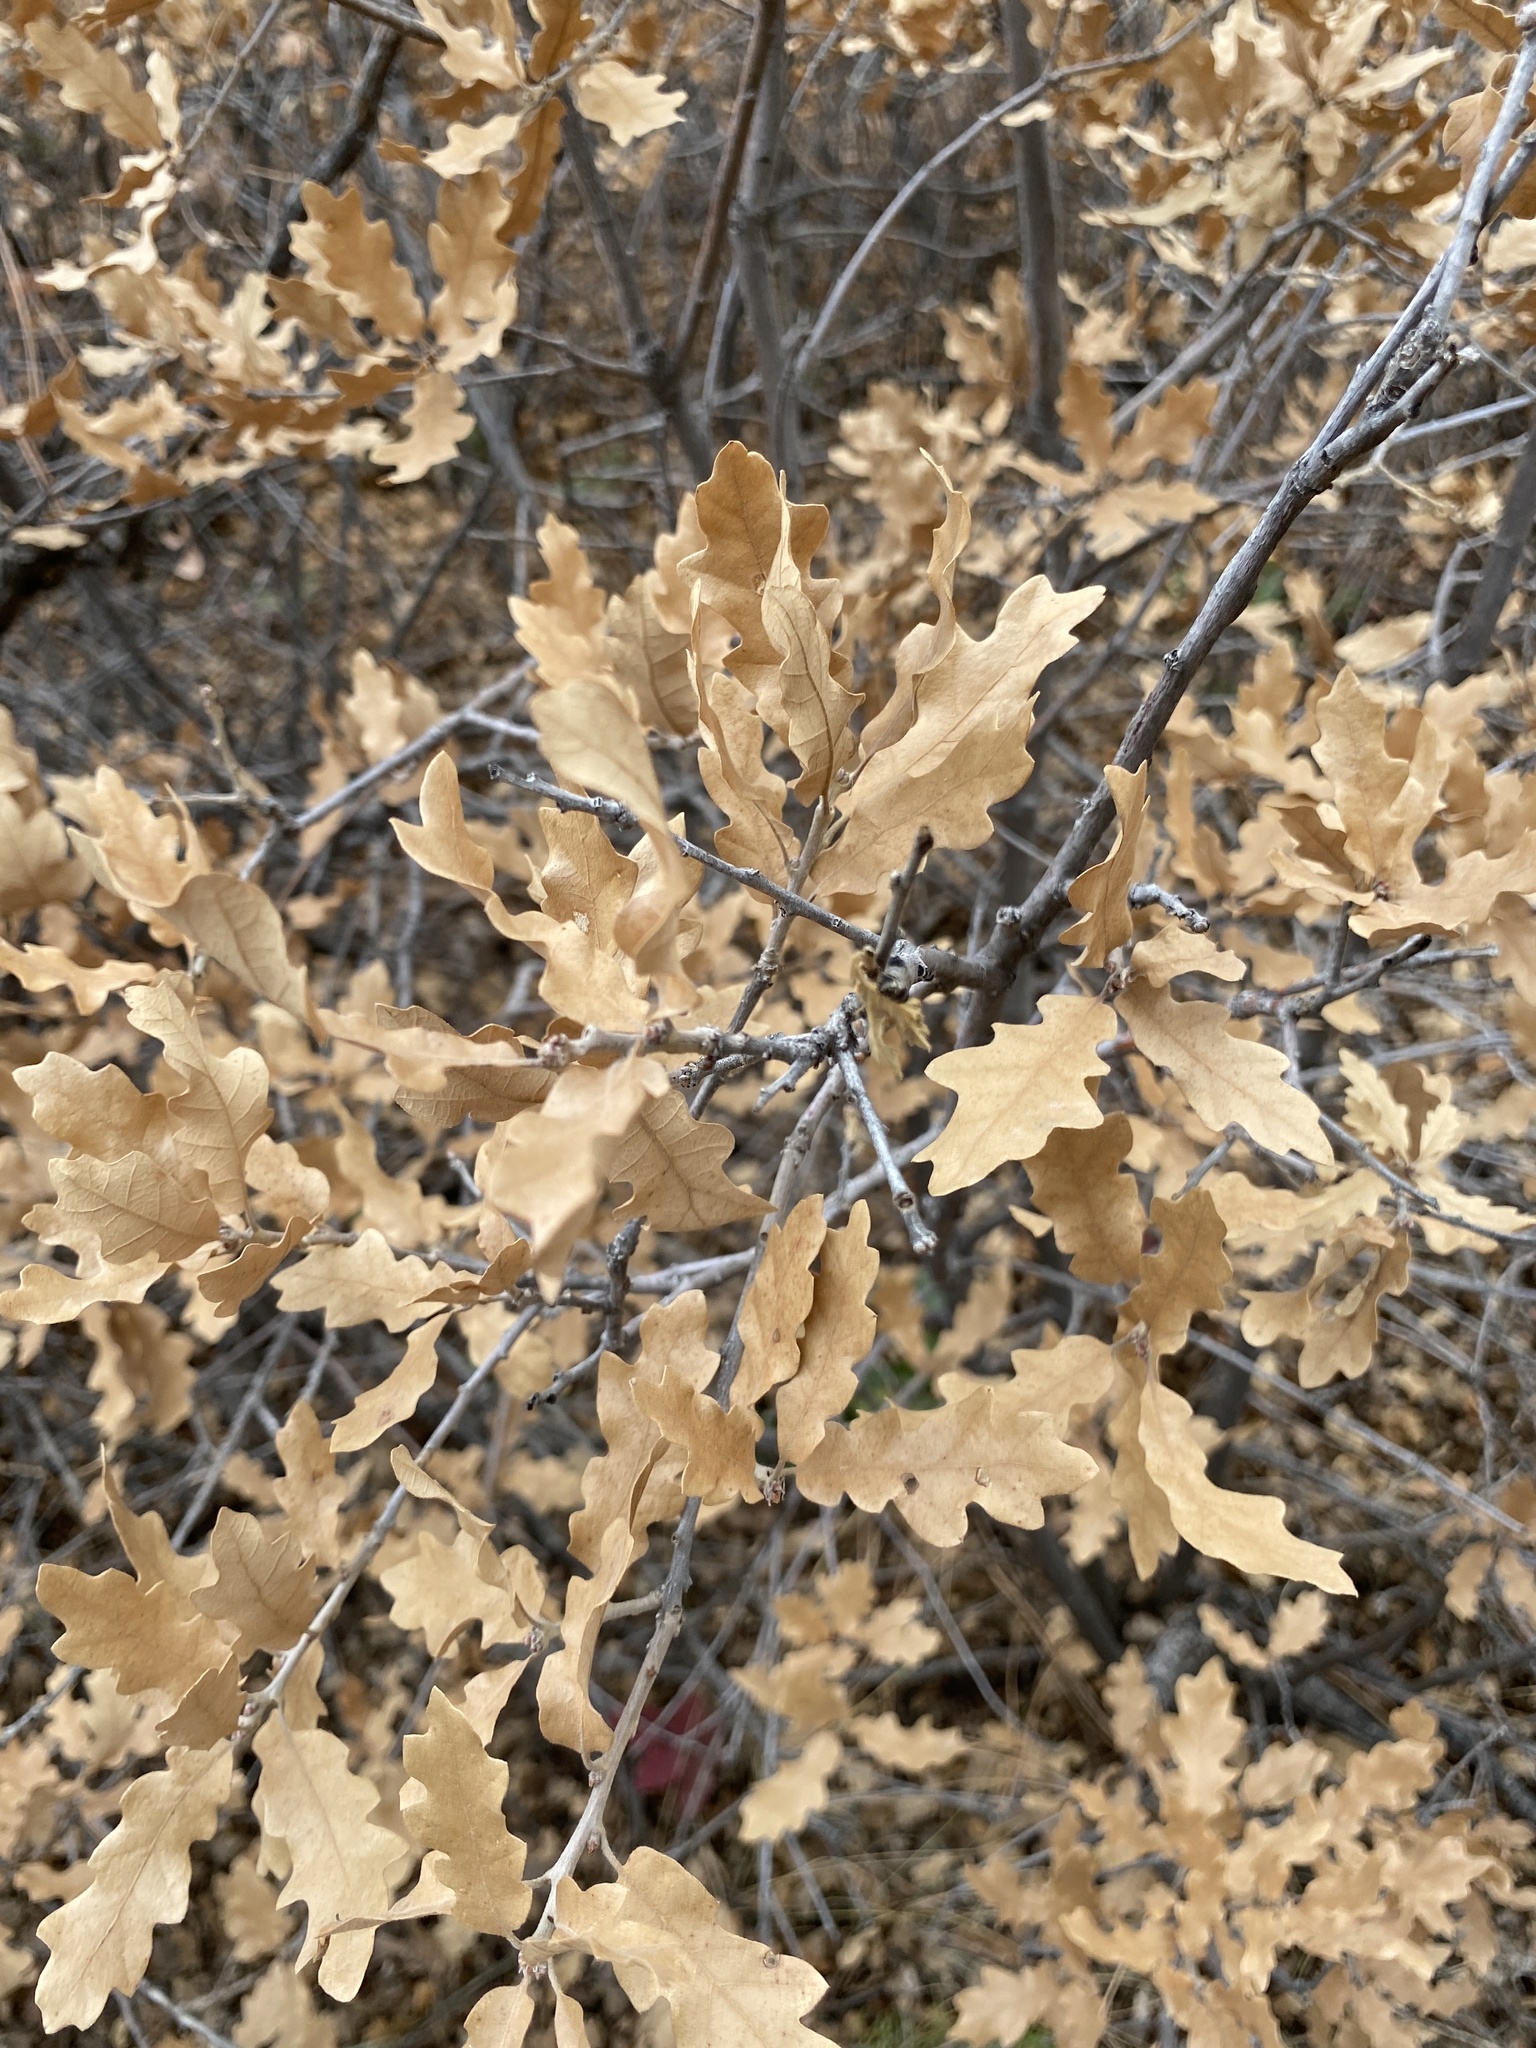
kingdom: Plantae
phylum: Tracheophyta
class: Magnoliopsida
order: Fagales
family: Fagaceae
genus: Quercus
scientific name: Quercus undulata
